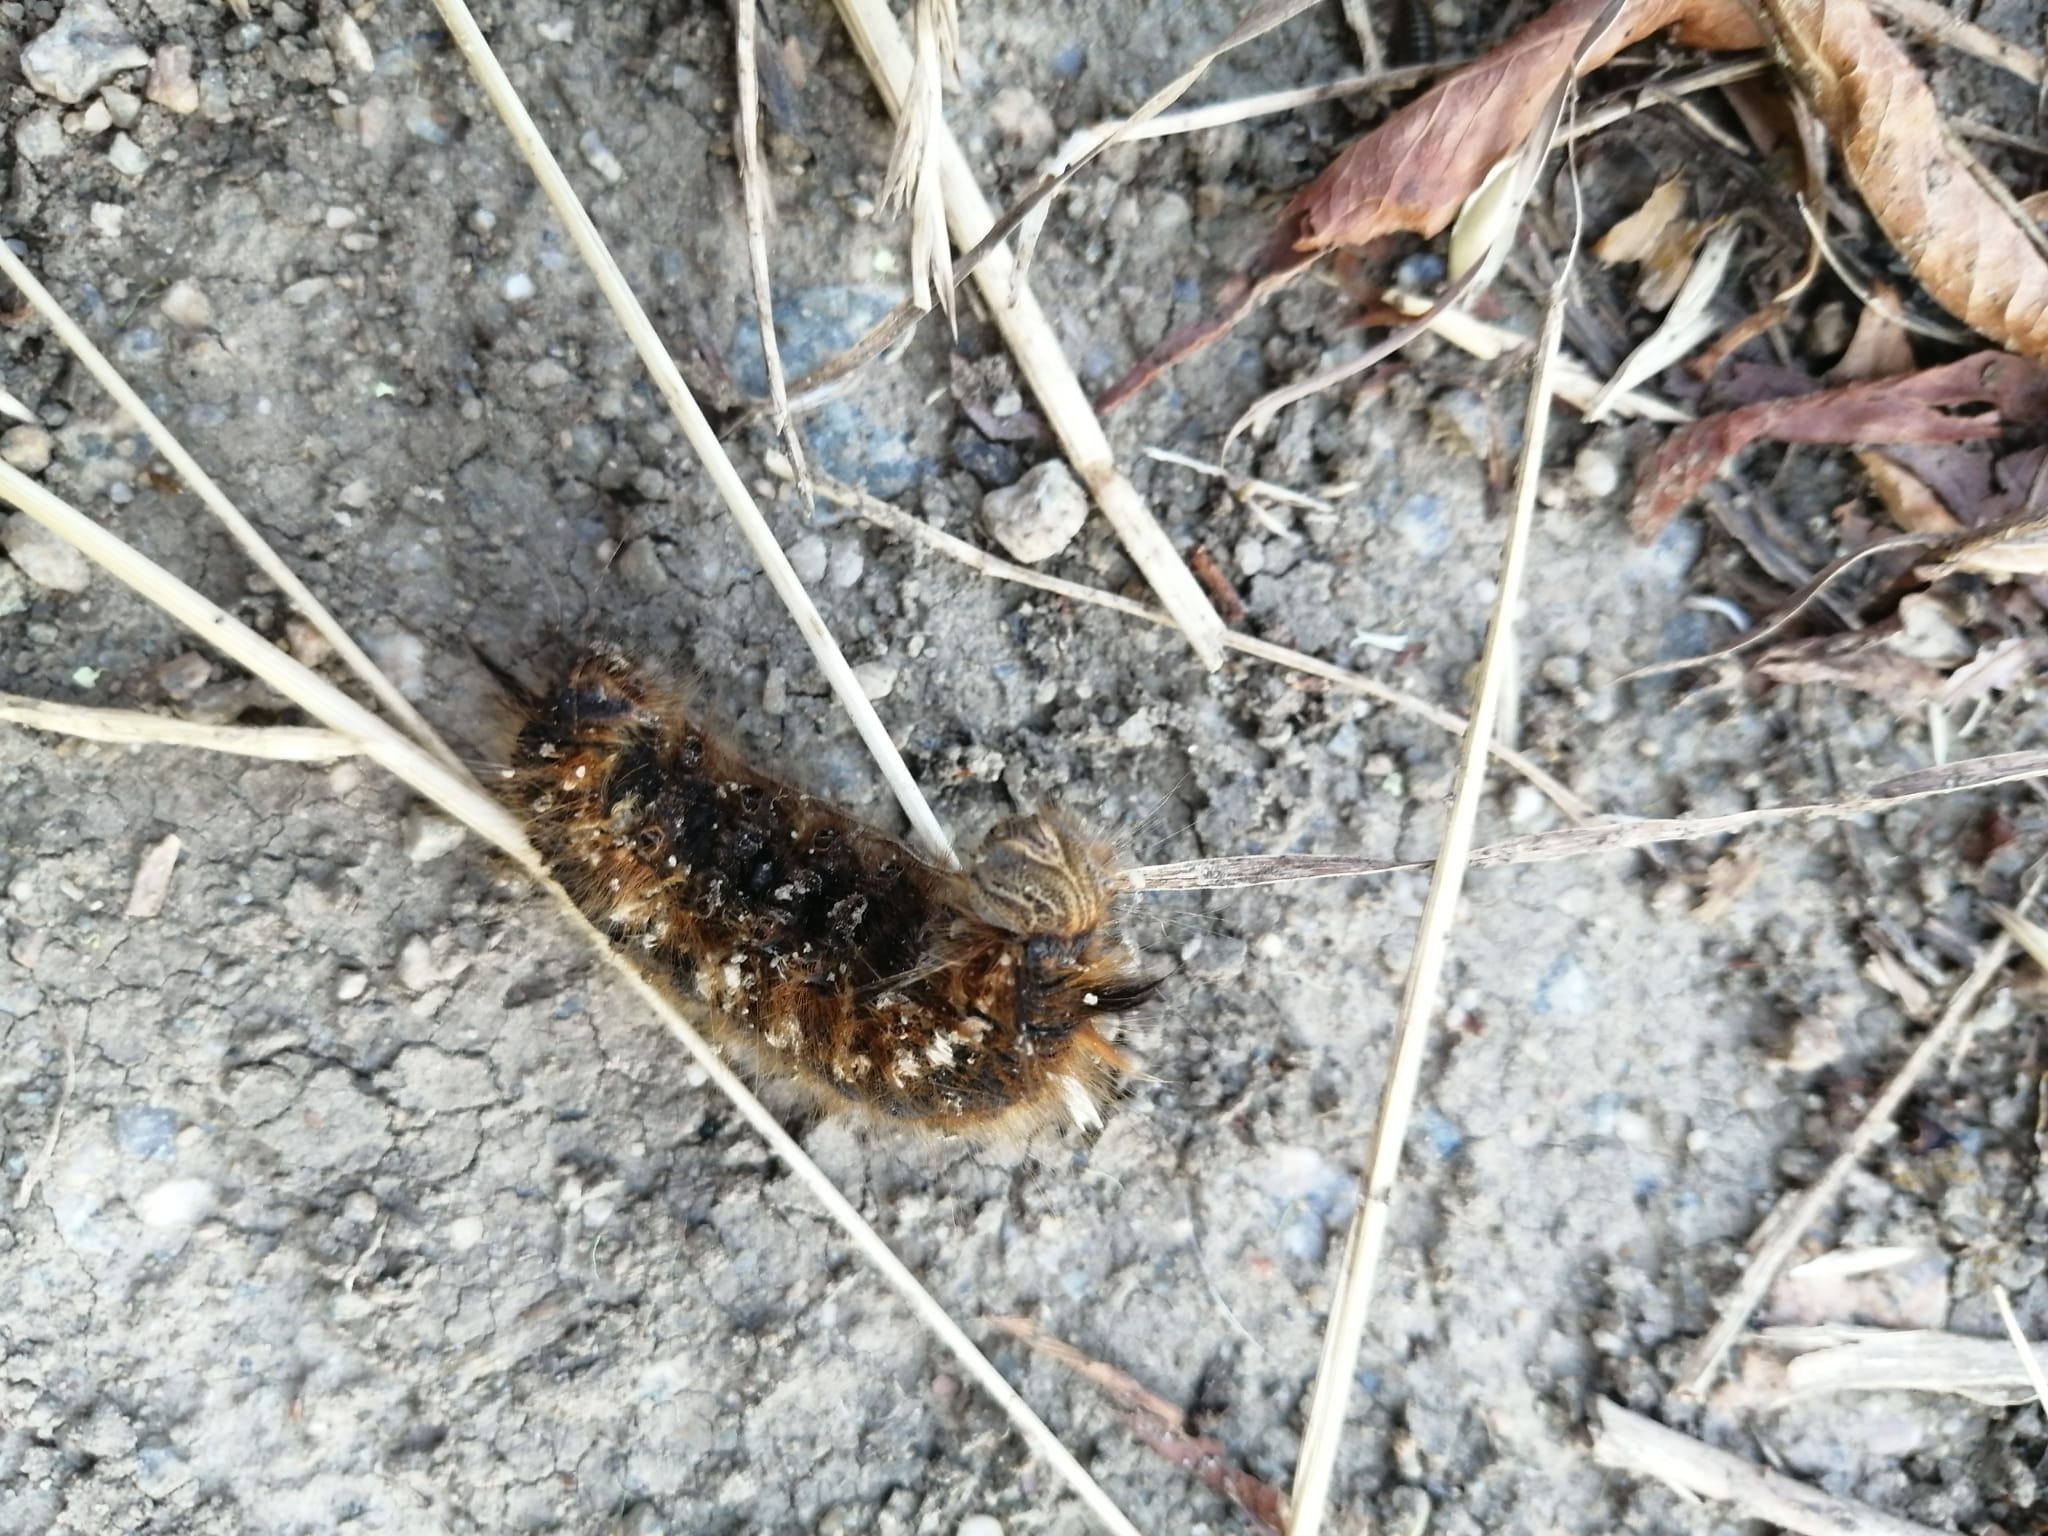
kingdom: Animalia
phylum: Arthropoda
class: Insecta
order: Lepidoptera
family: Lasiocampidae
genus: Euthrix
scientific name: Euthrix potatoria
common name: Drinker
